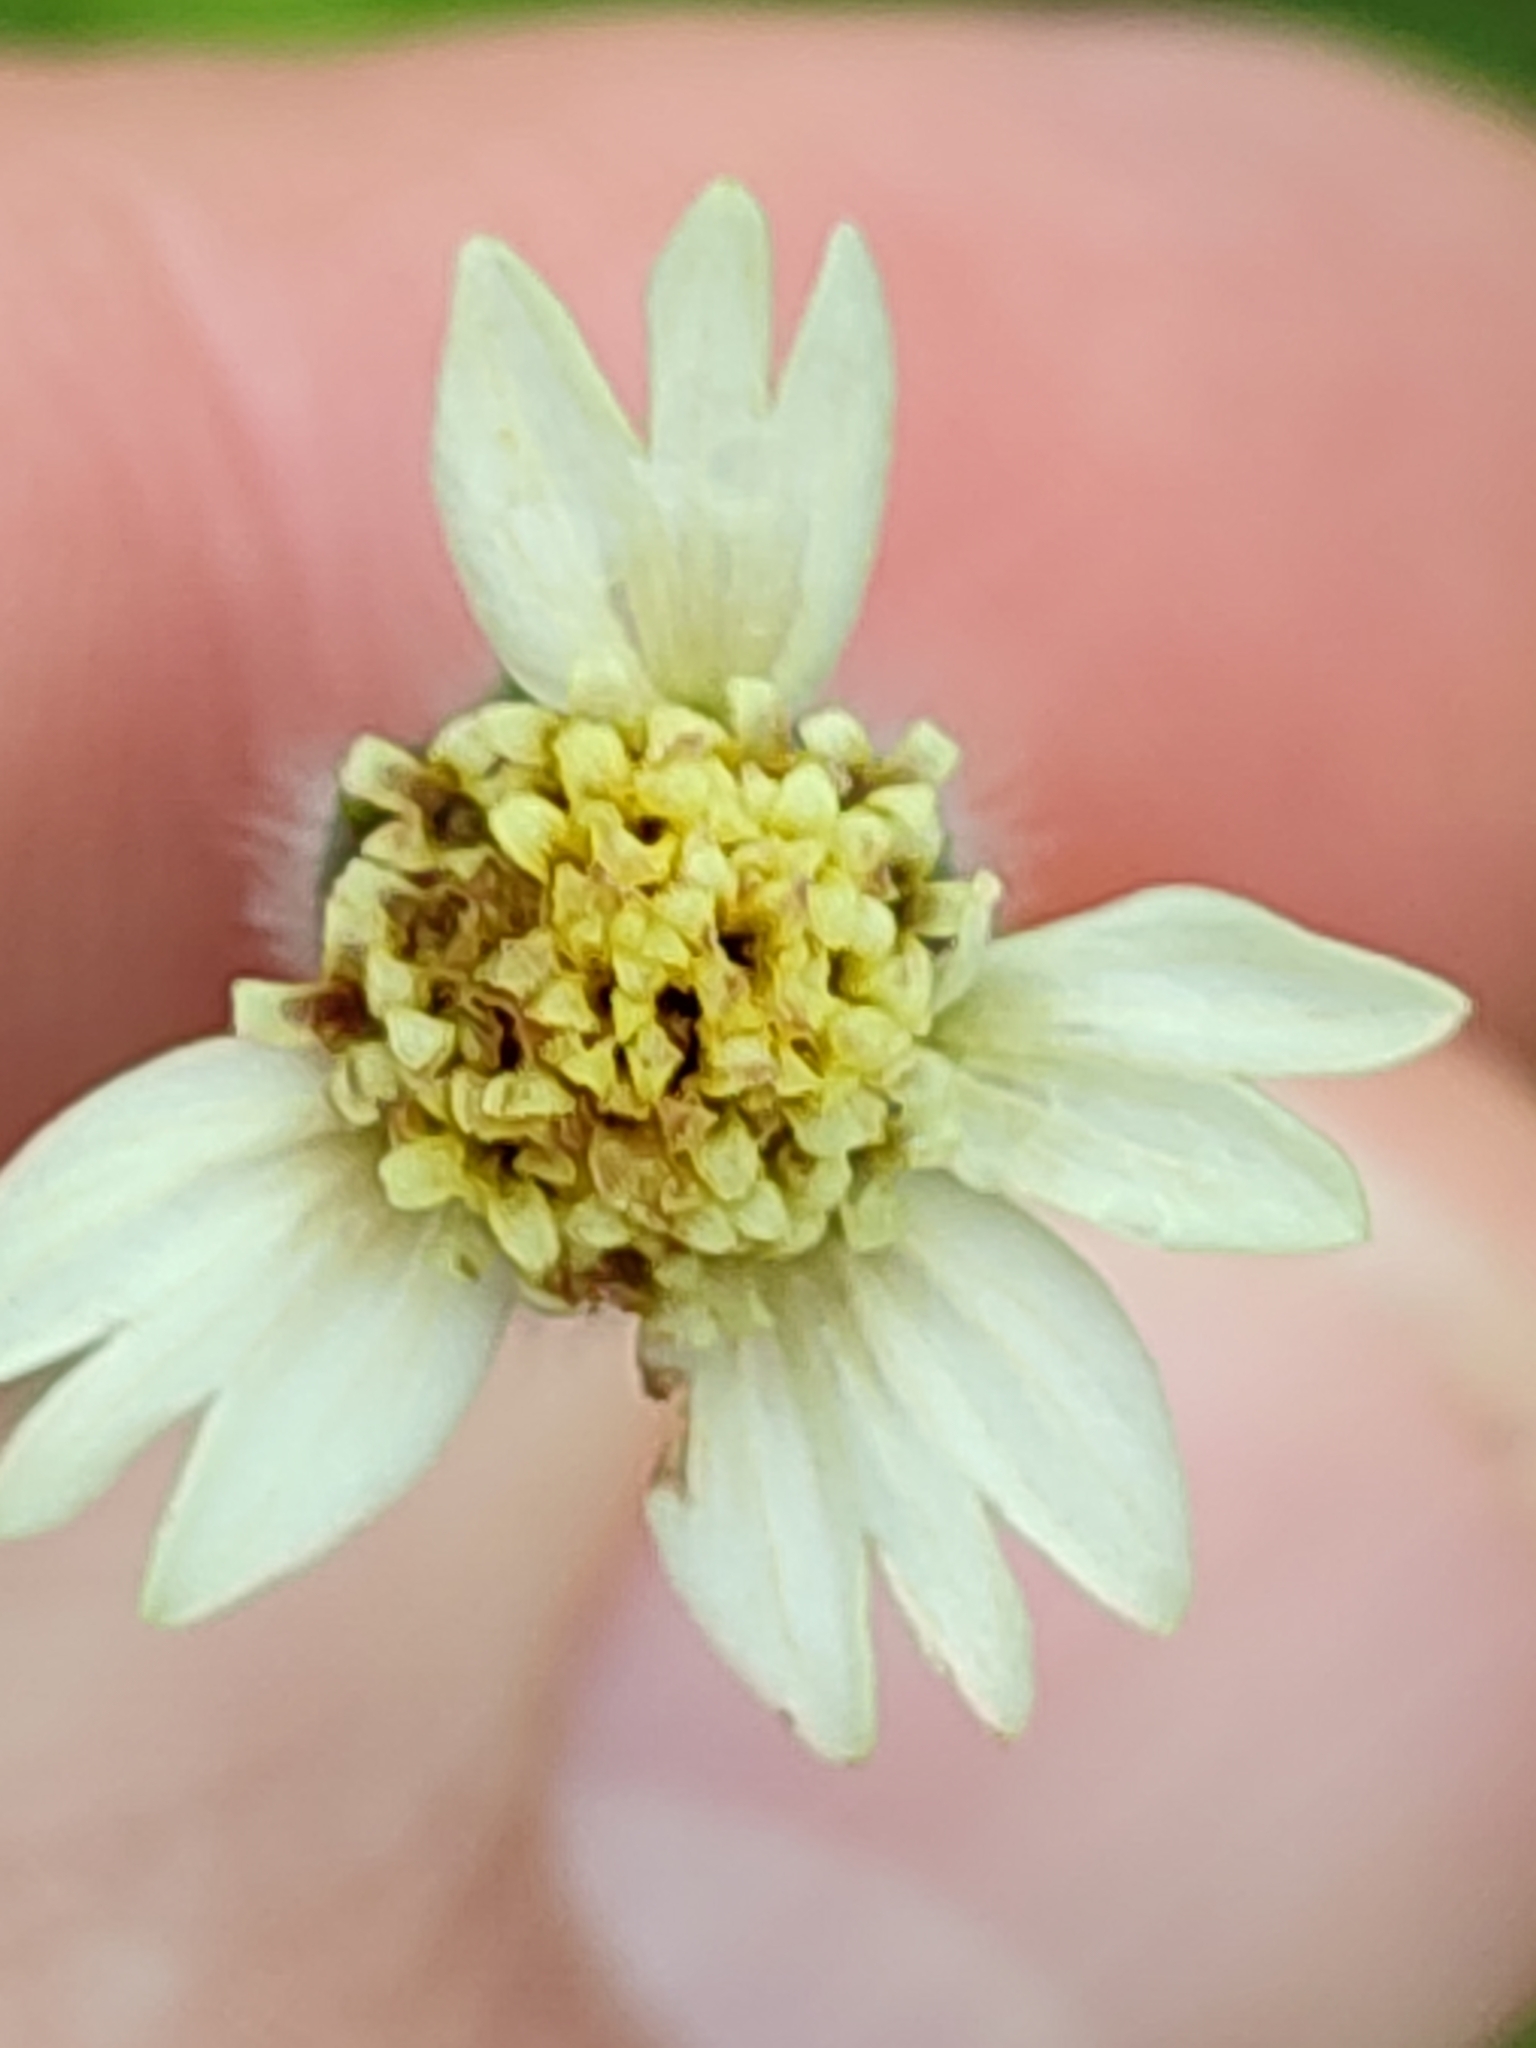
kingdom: Plantae
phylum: Tracheophyta
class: Magnoliopsida
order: Asterales
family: Asteraceae
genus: Tridax
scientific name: Tridax procumbens
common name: Coatbuttons
